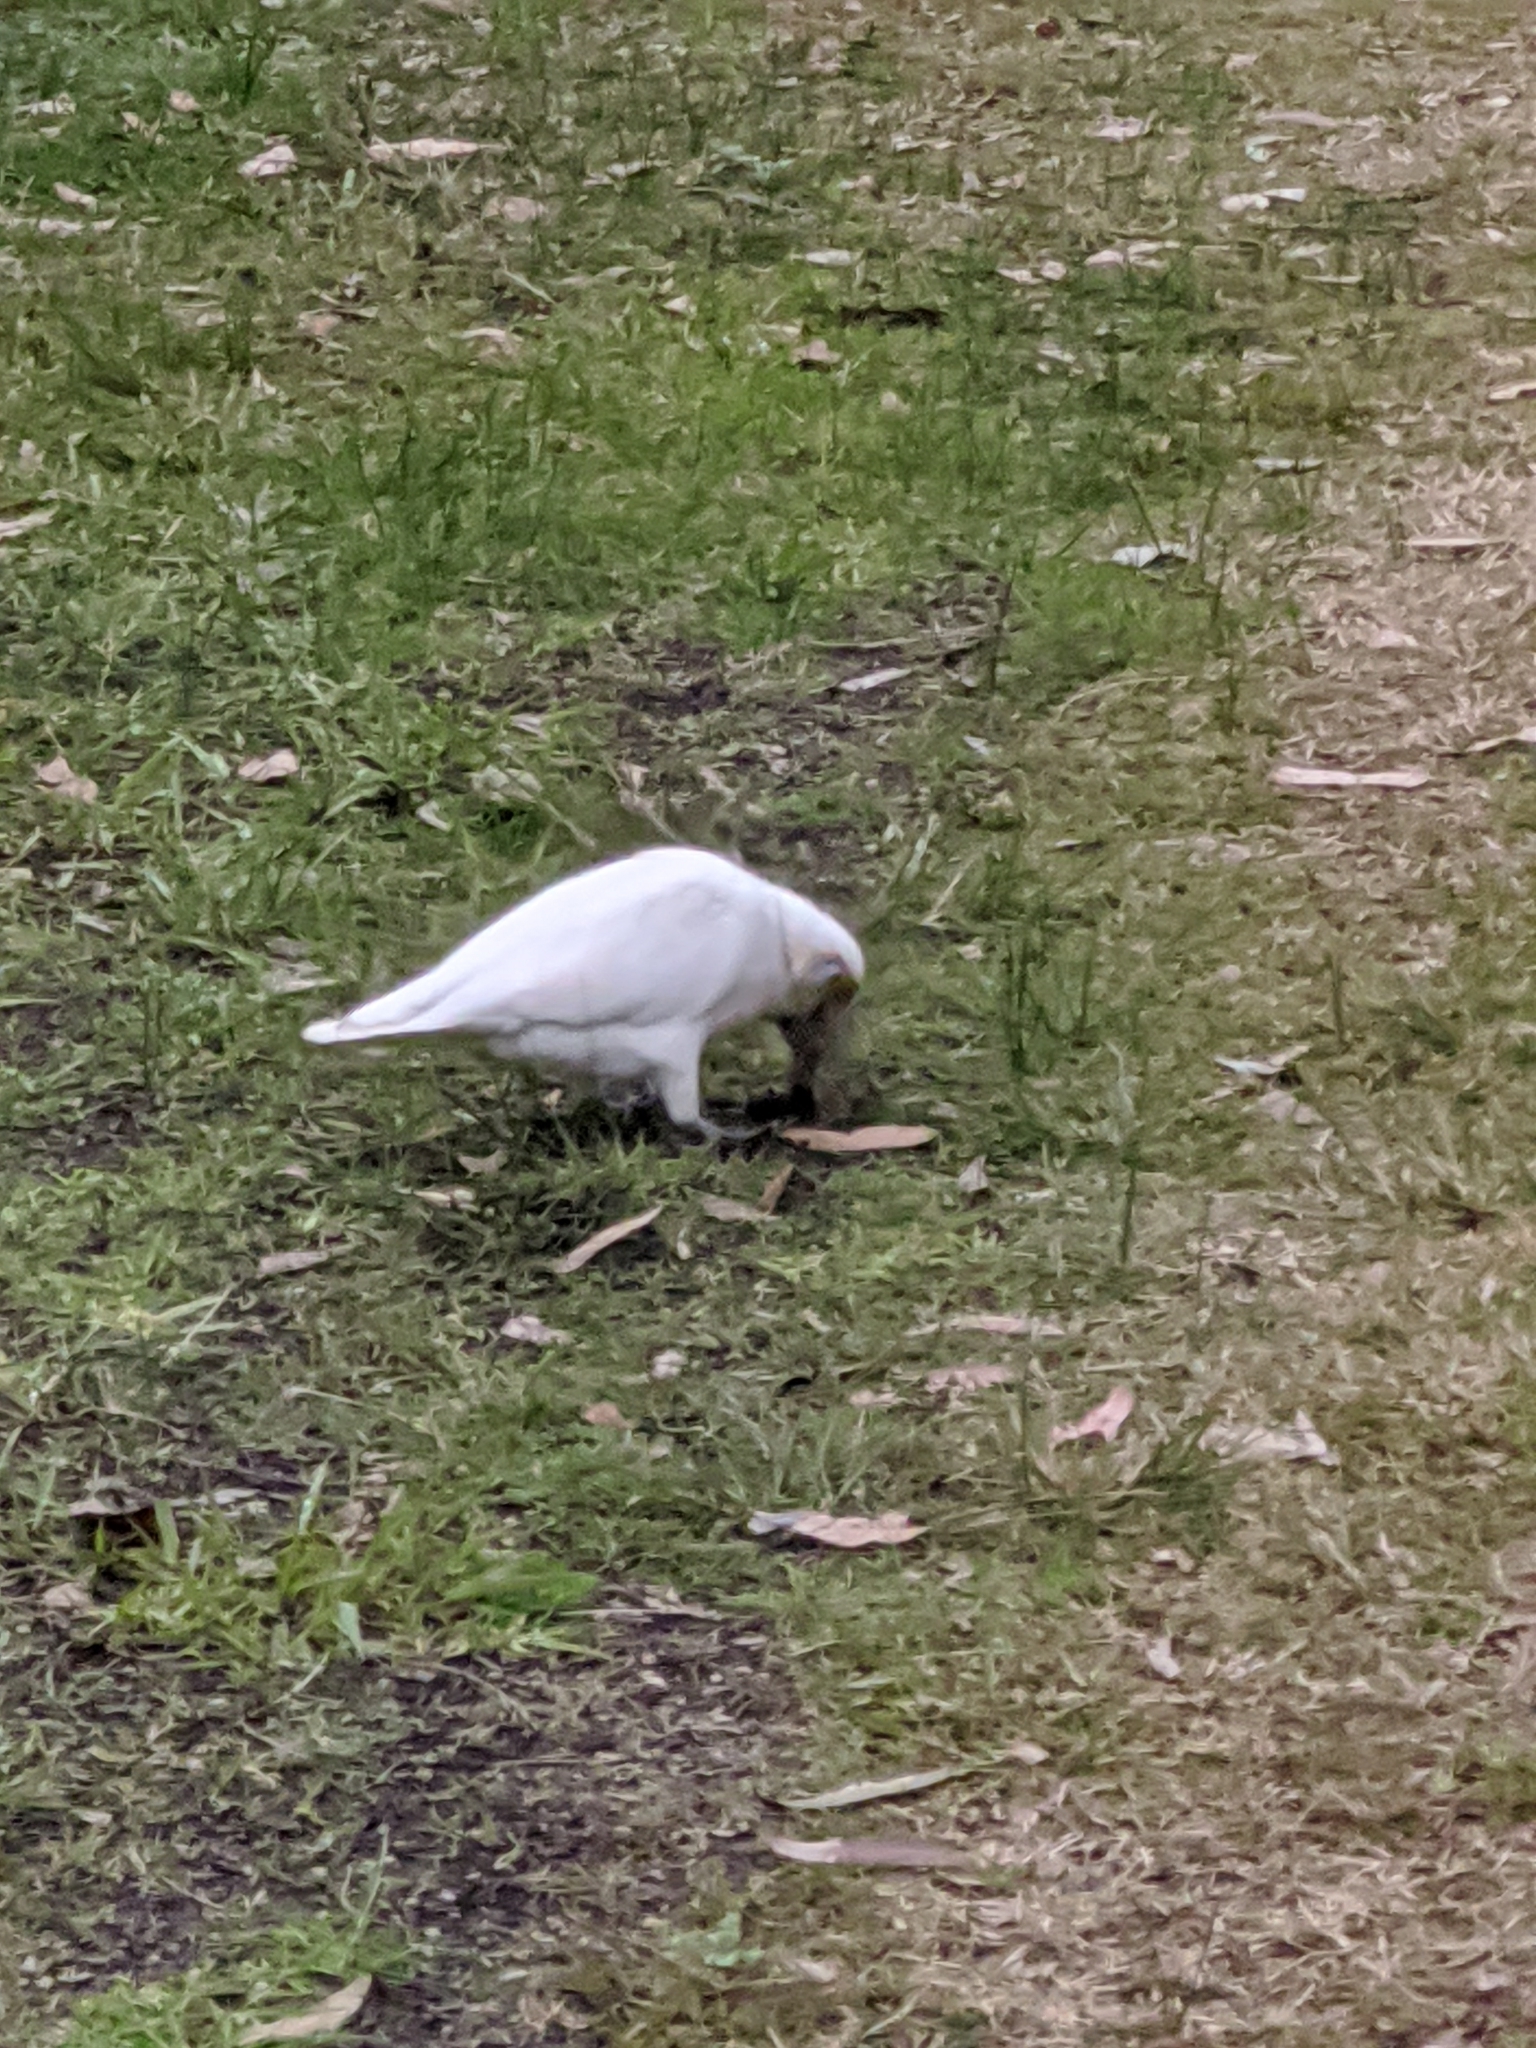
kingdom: Animalia
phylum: Chordata
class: Aves
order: Psittaciformes
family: Psittacidae
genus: Cacatua
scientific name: Cacatua sanguinea
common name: Little corella
